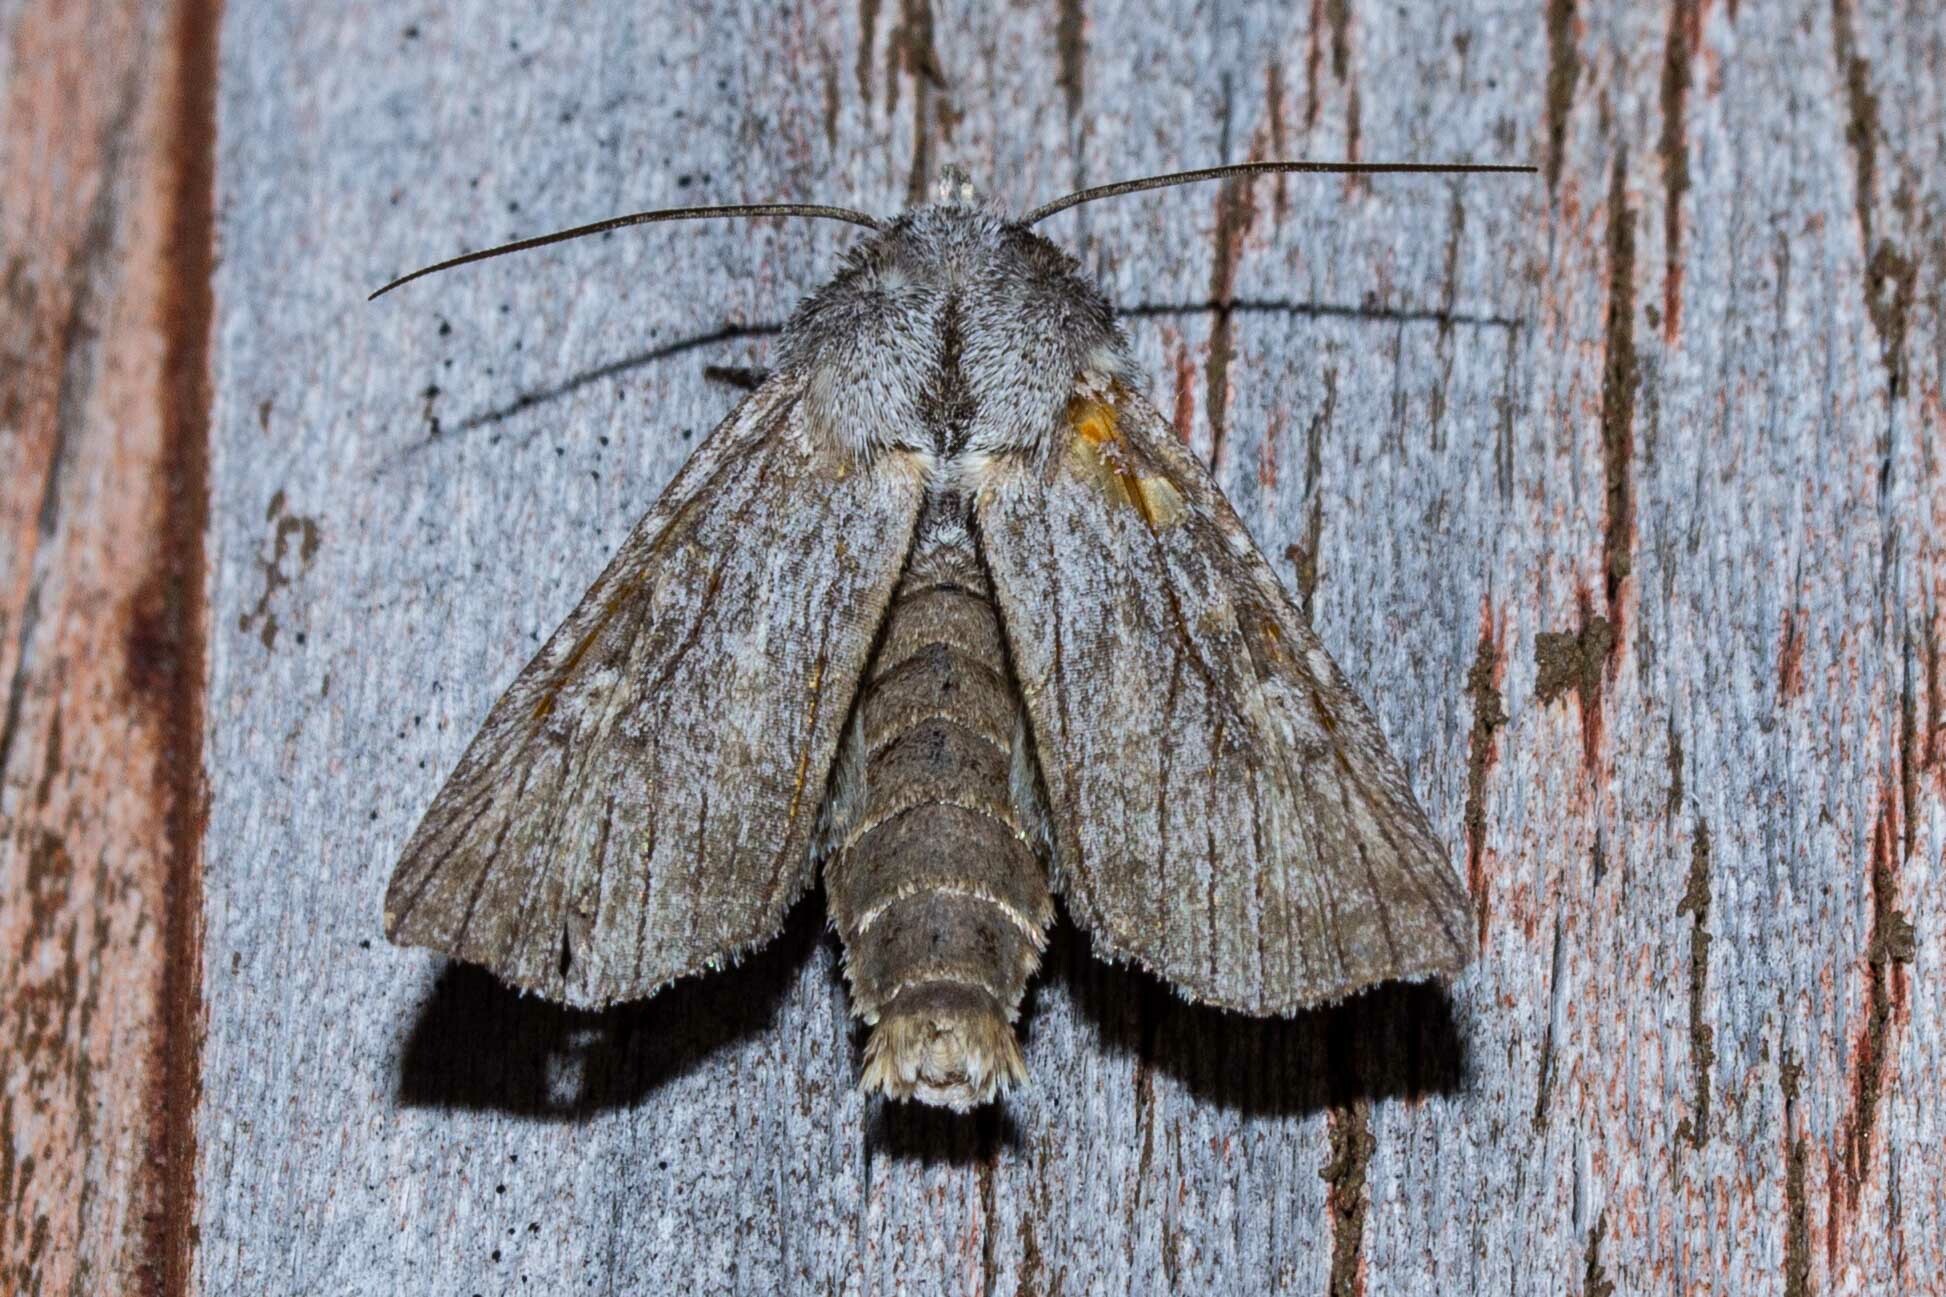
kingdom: Animalia
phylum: Arthropoda
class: Insecta
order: Lepidoptera
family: Noctuidae
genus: Physetica
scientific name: Physetica phricias
